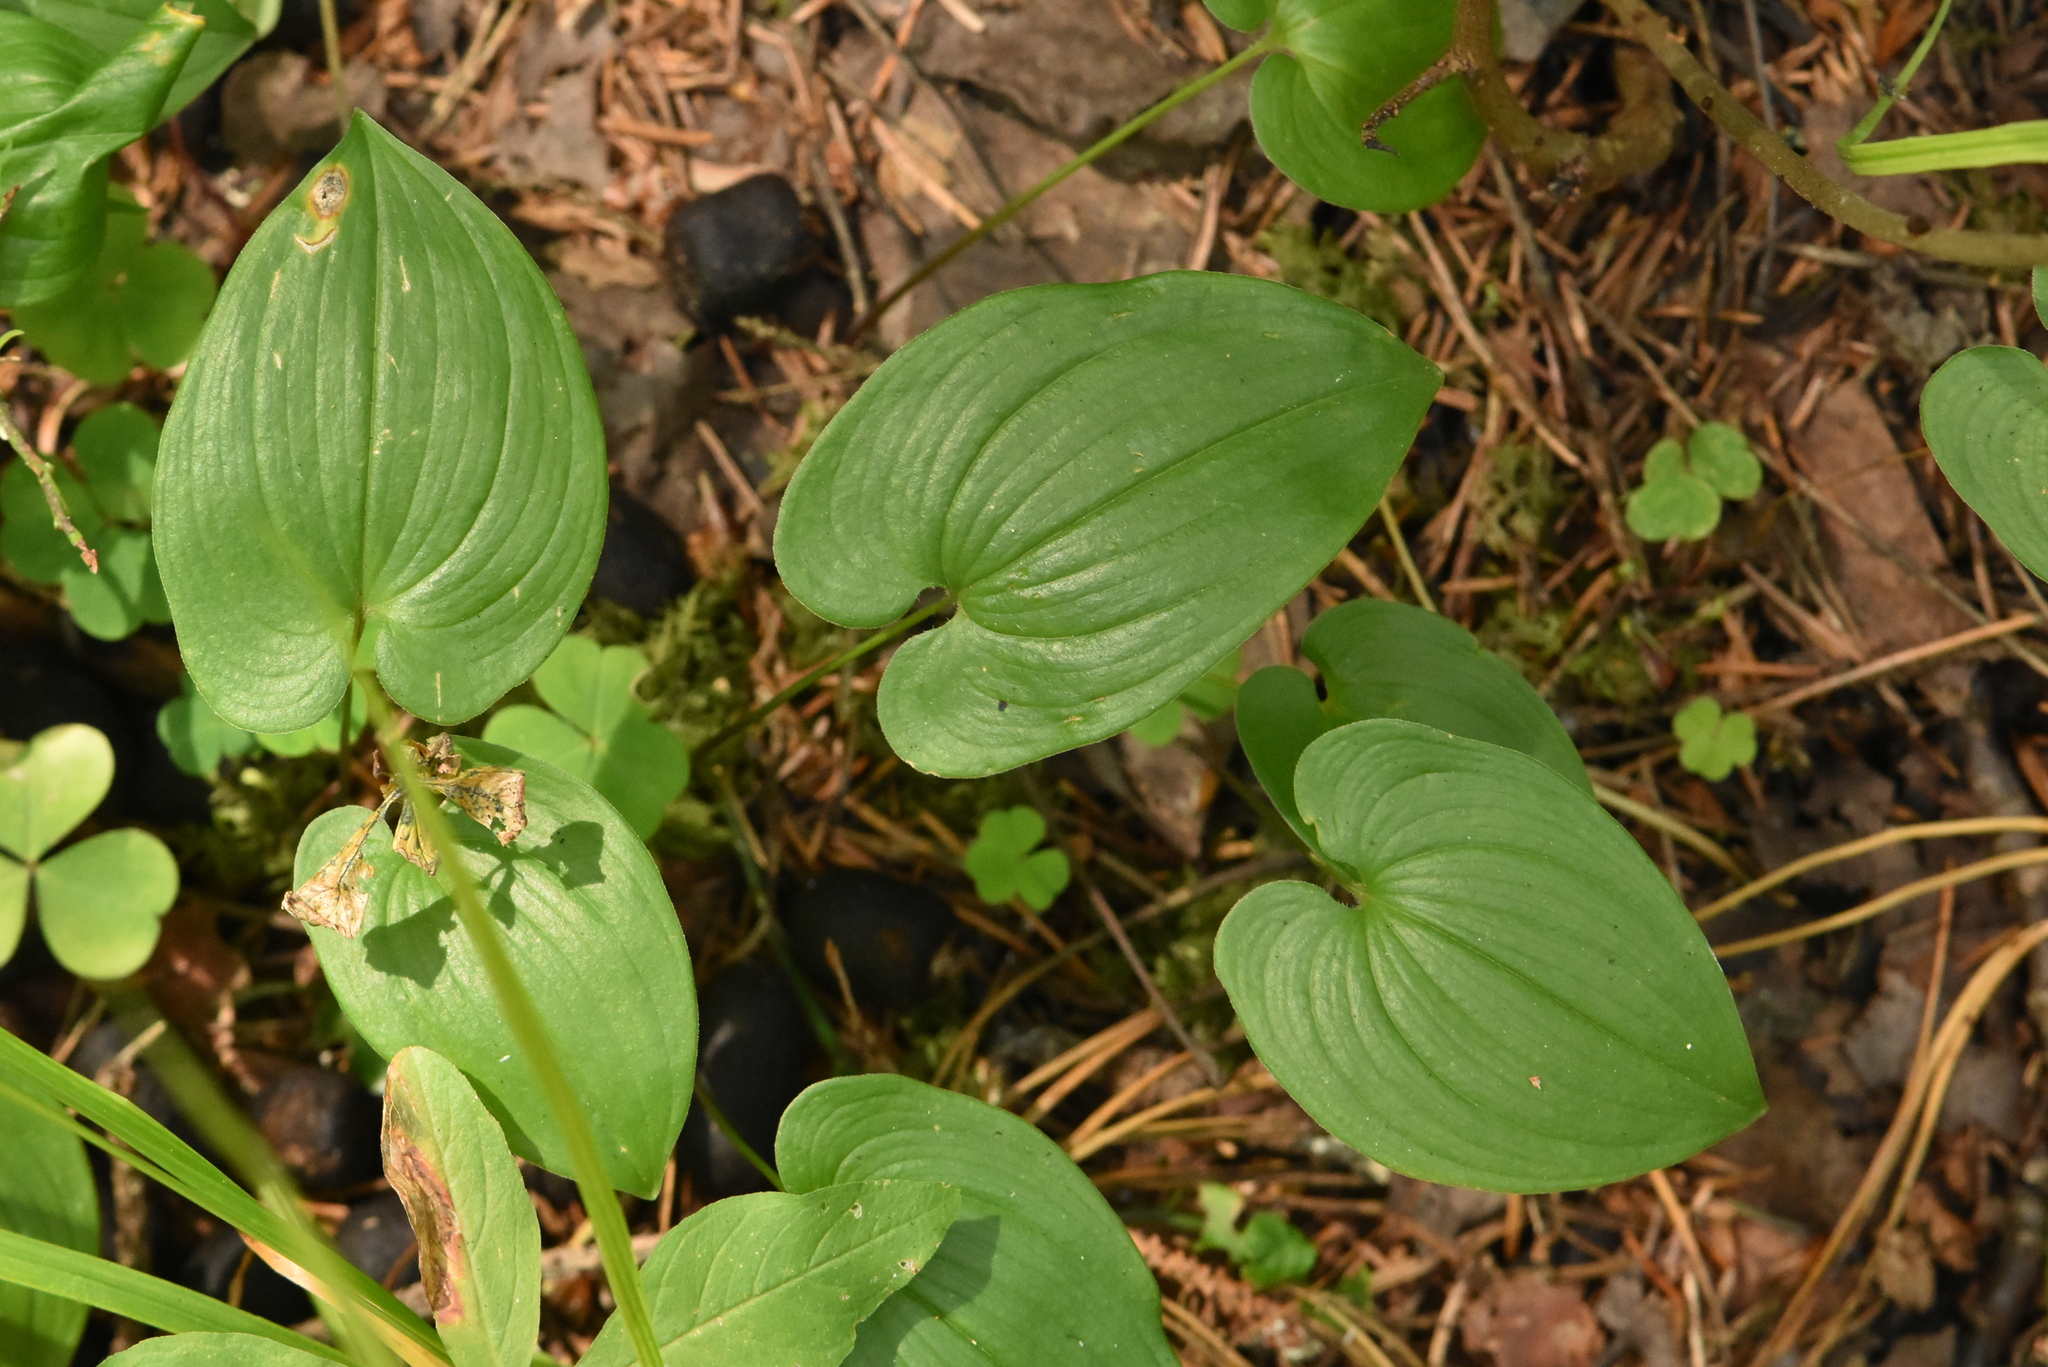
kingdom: Plantae
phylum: Tracheophyta
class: Liliopsida
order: Asparagales
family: Asparagaceae
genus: Maianthemum
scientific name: Maianthemum bifolium
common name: May lily
